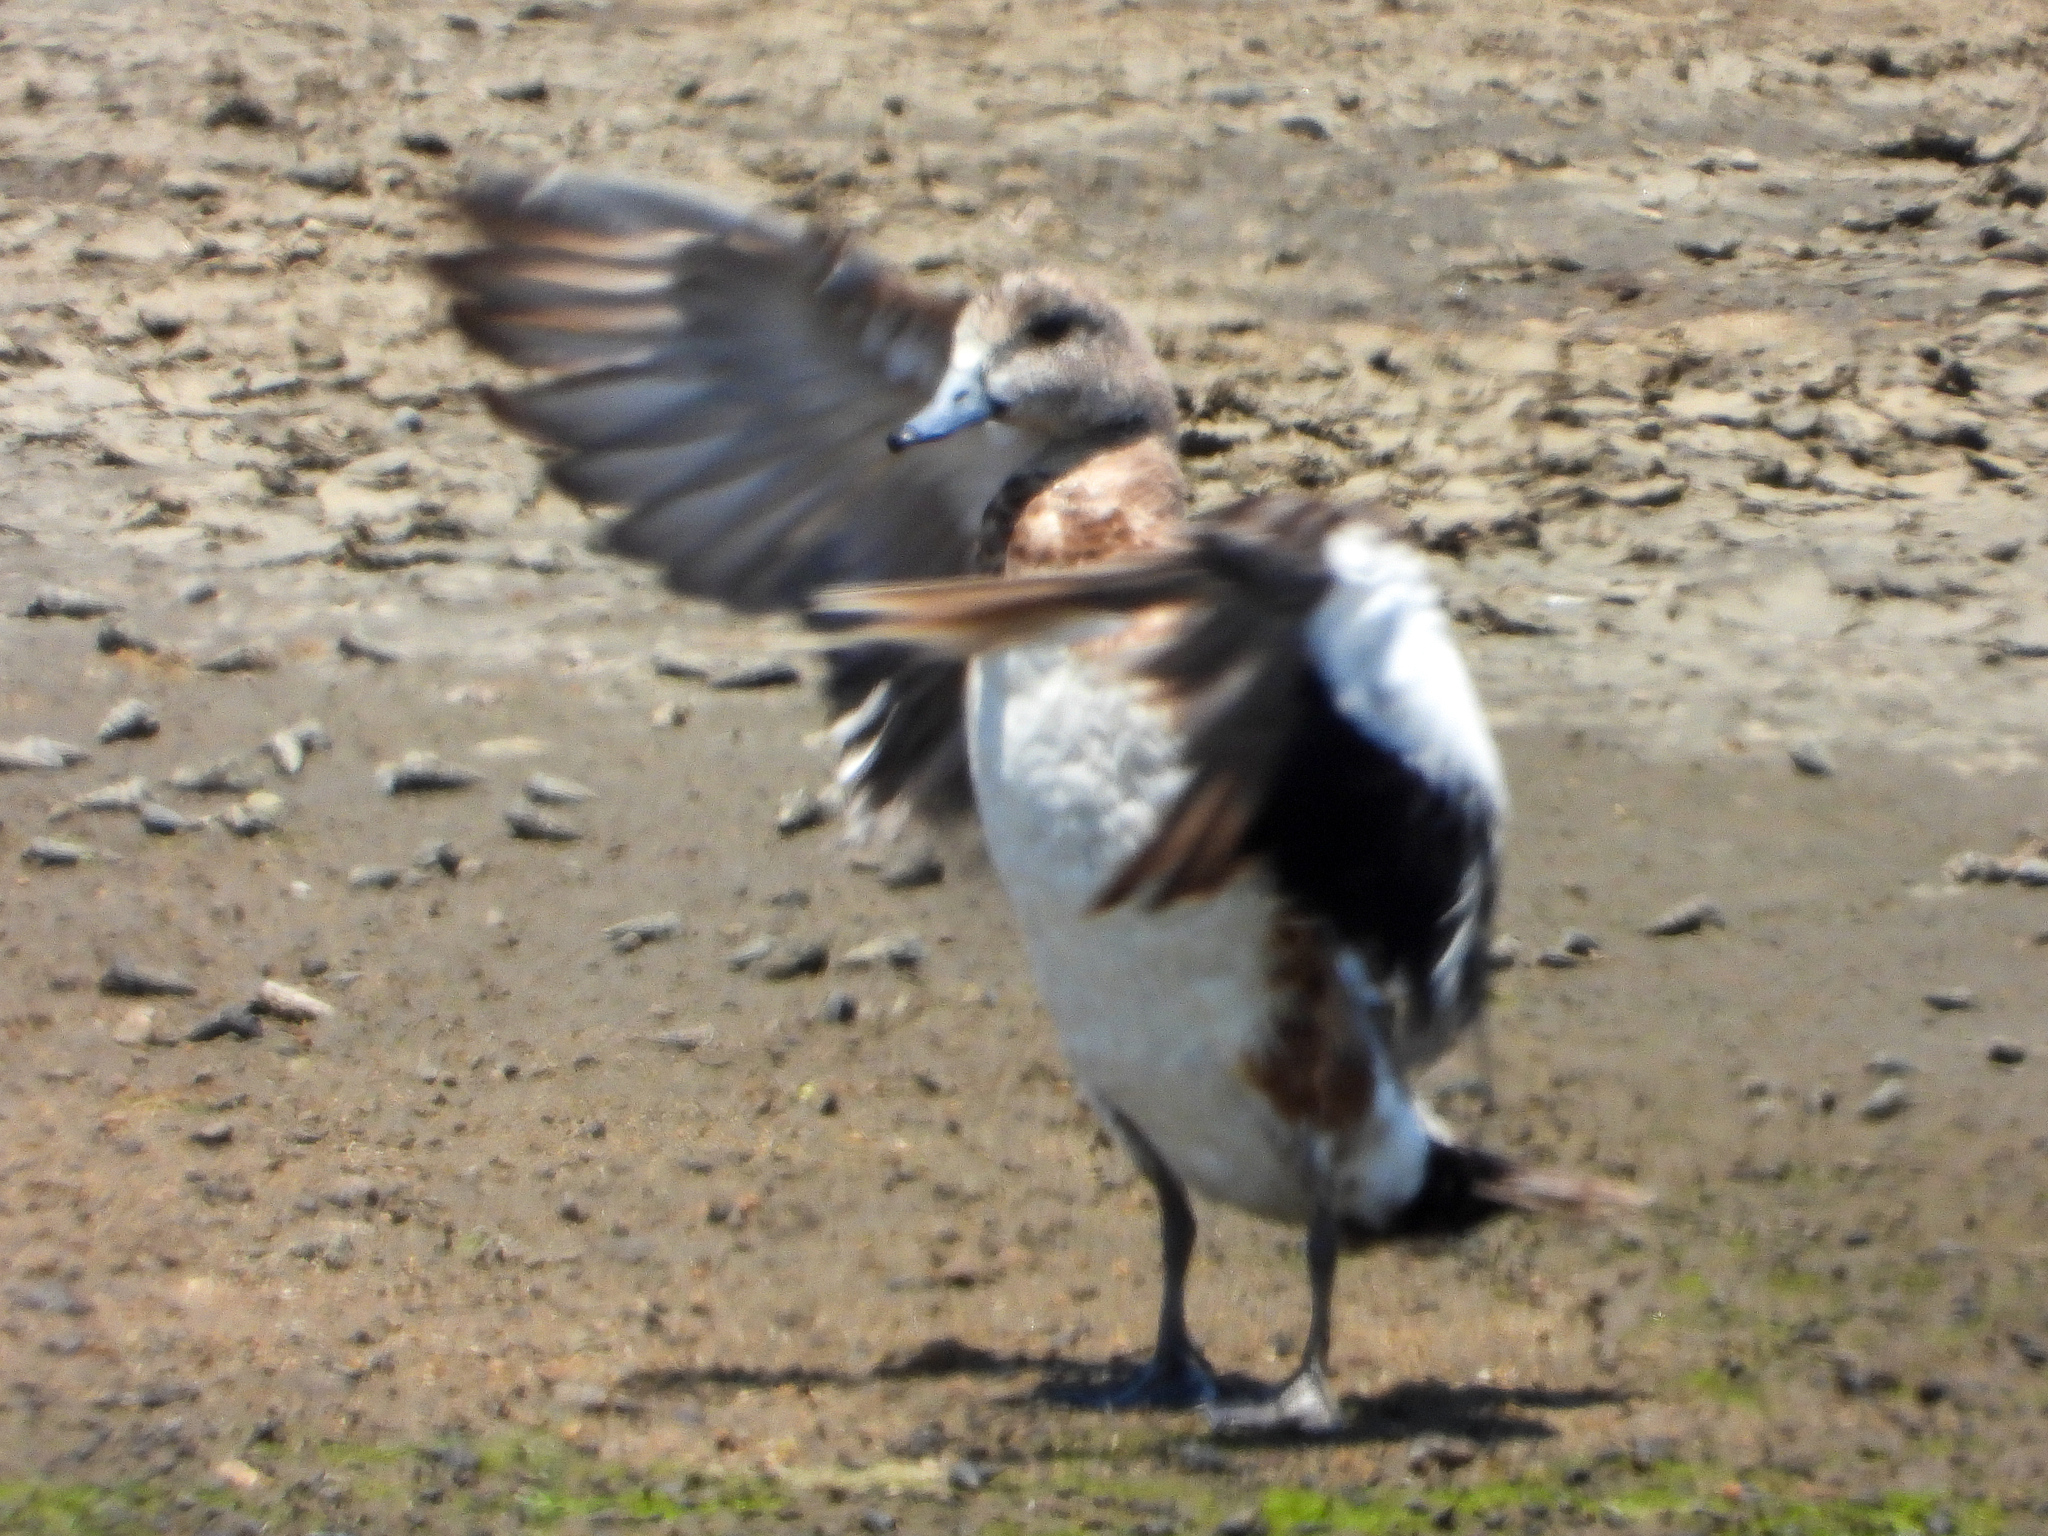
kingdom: Animalia
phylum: Chordata
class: Aves
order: Anseriformes
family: Anatidae
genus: Mareca
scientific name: Mareca americana
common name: American wigeon
